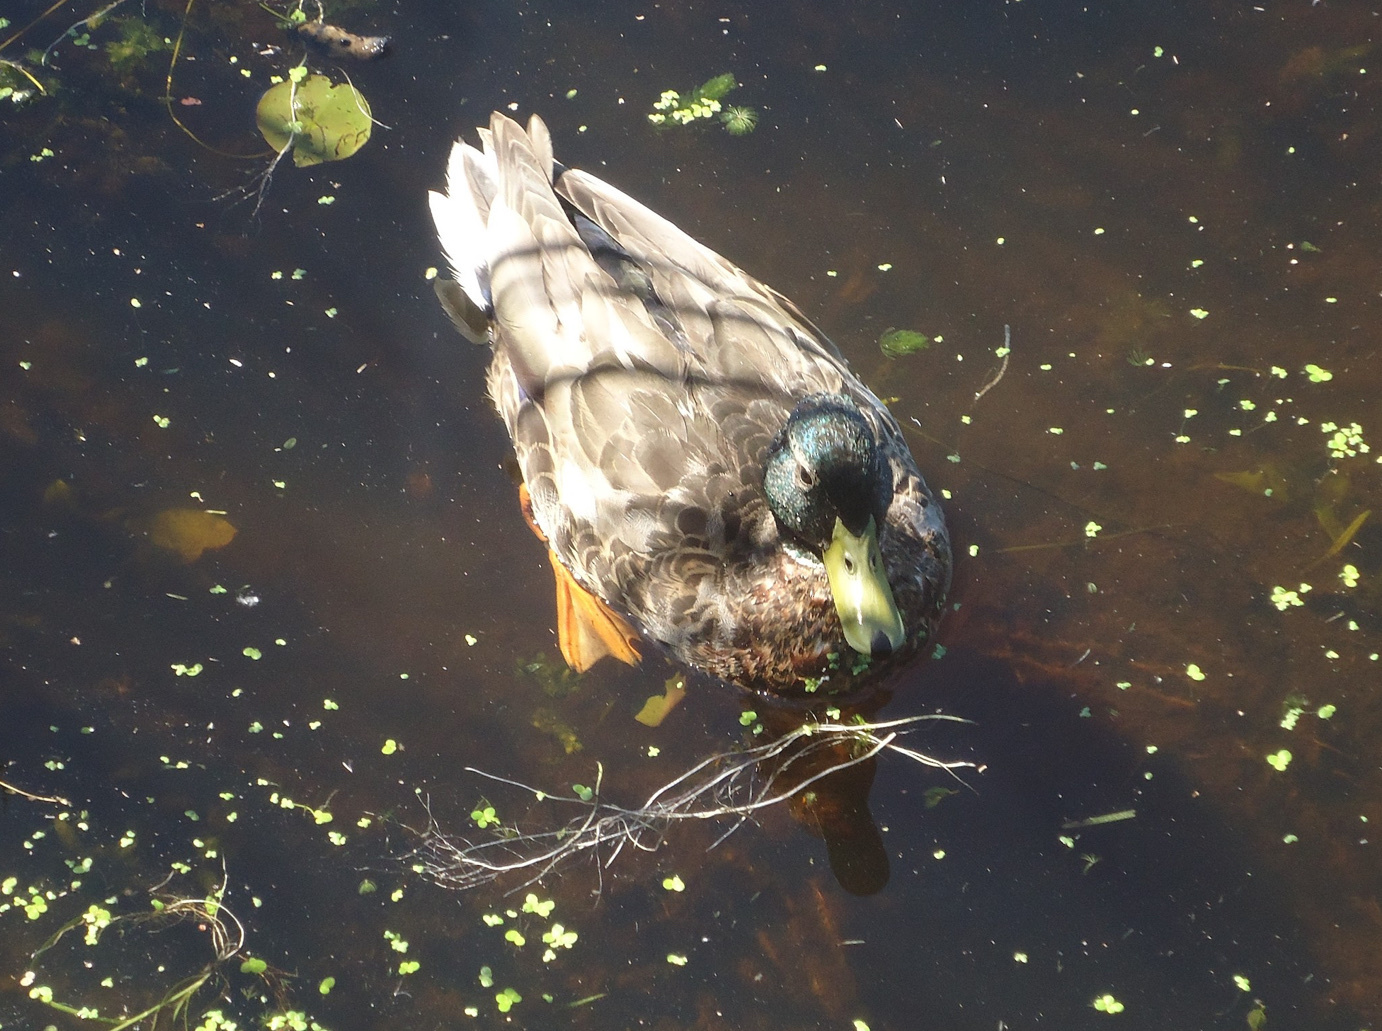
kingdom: Animalia
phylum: Chordata
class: Aves
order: Anseriformes
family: Anatidae
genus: Anas
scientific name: Anas platyrhynchos
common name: Mallard
